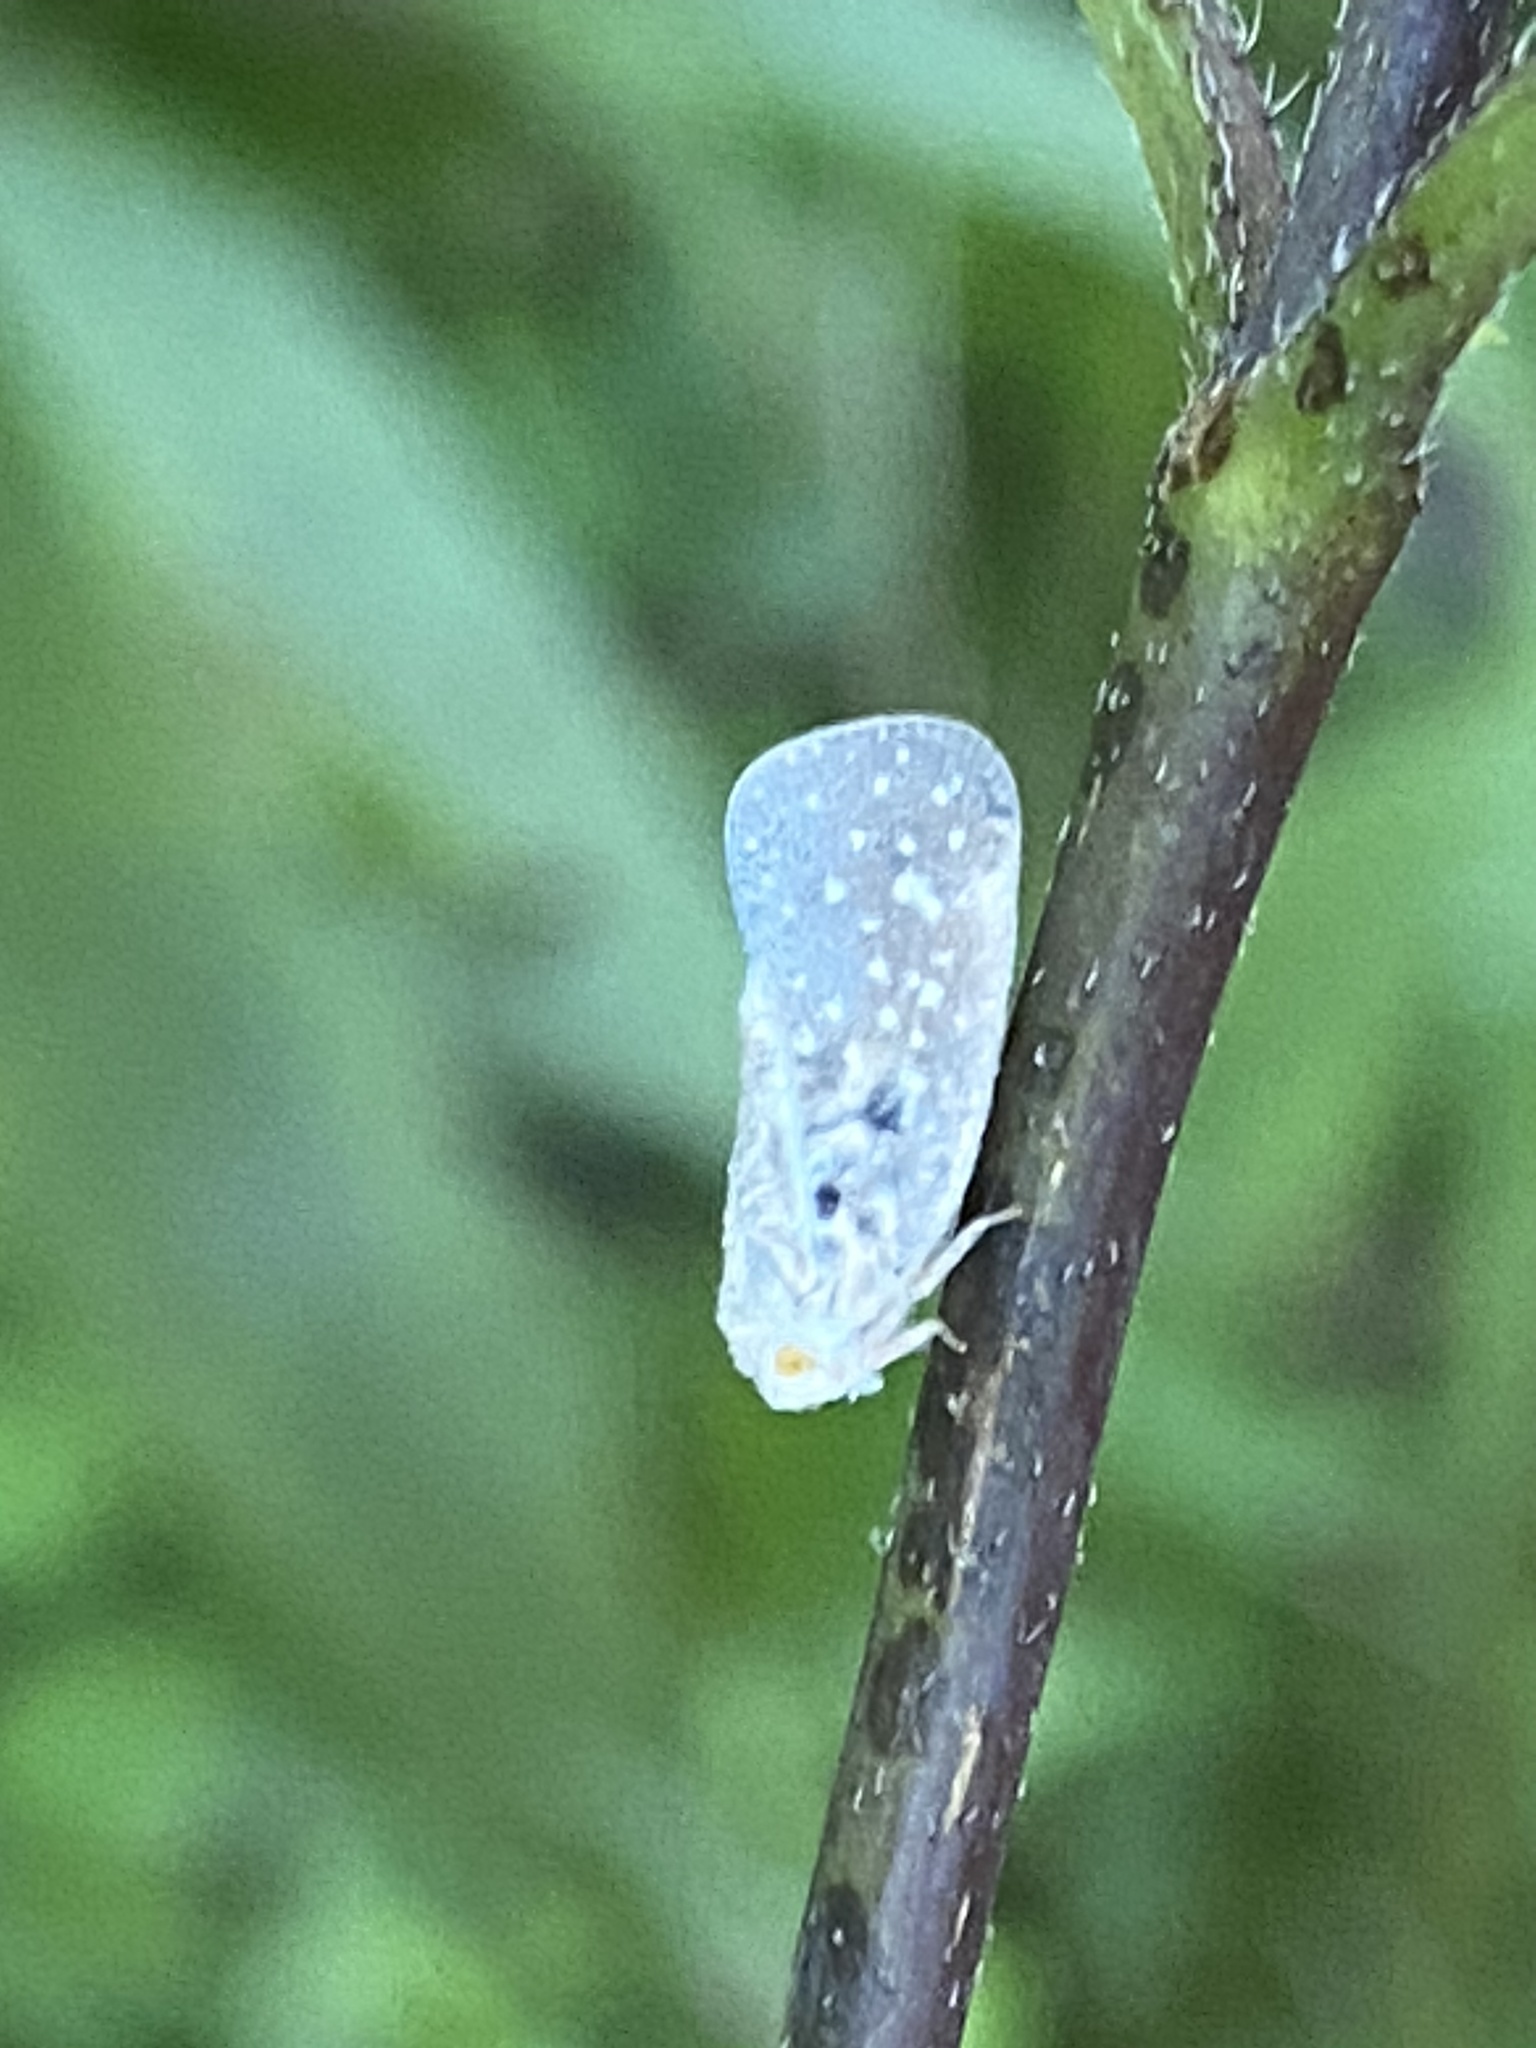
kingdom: Animalia
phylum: Arthropoda
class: Insecta
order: Hemiptera
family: Flatidae
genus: Metcalfa
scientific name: Metcalfa pruinosa
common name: Citrus flatid planthopper
